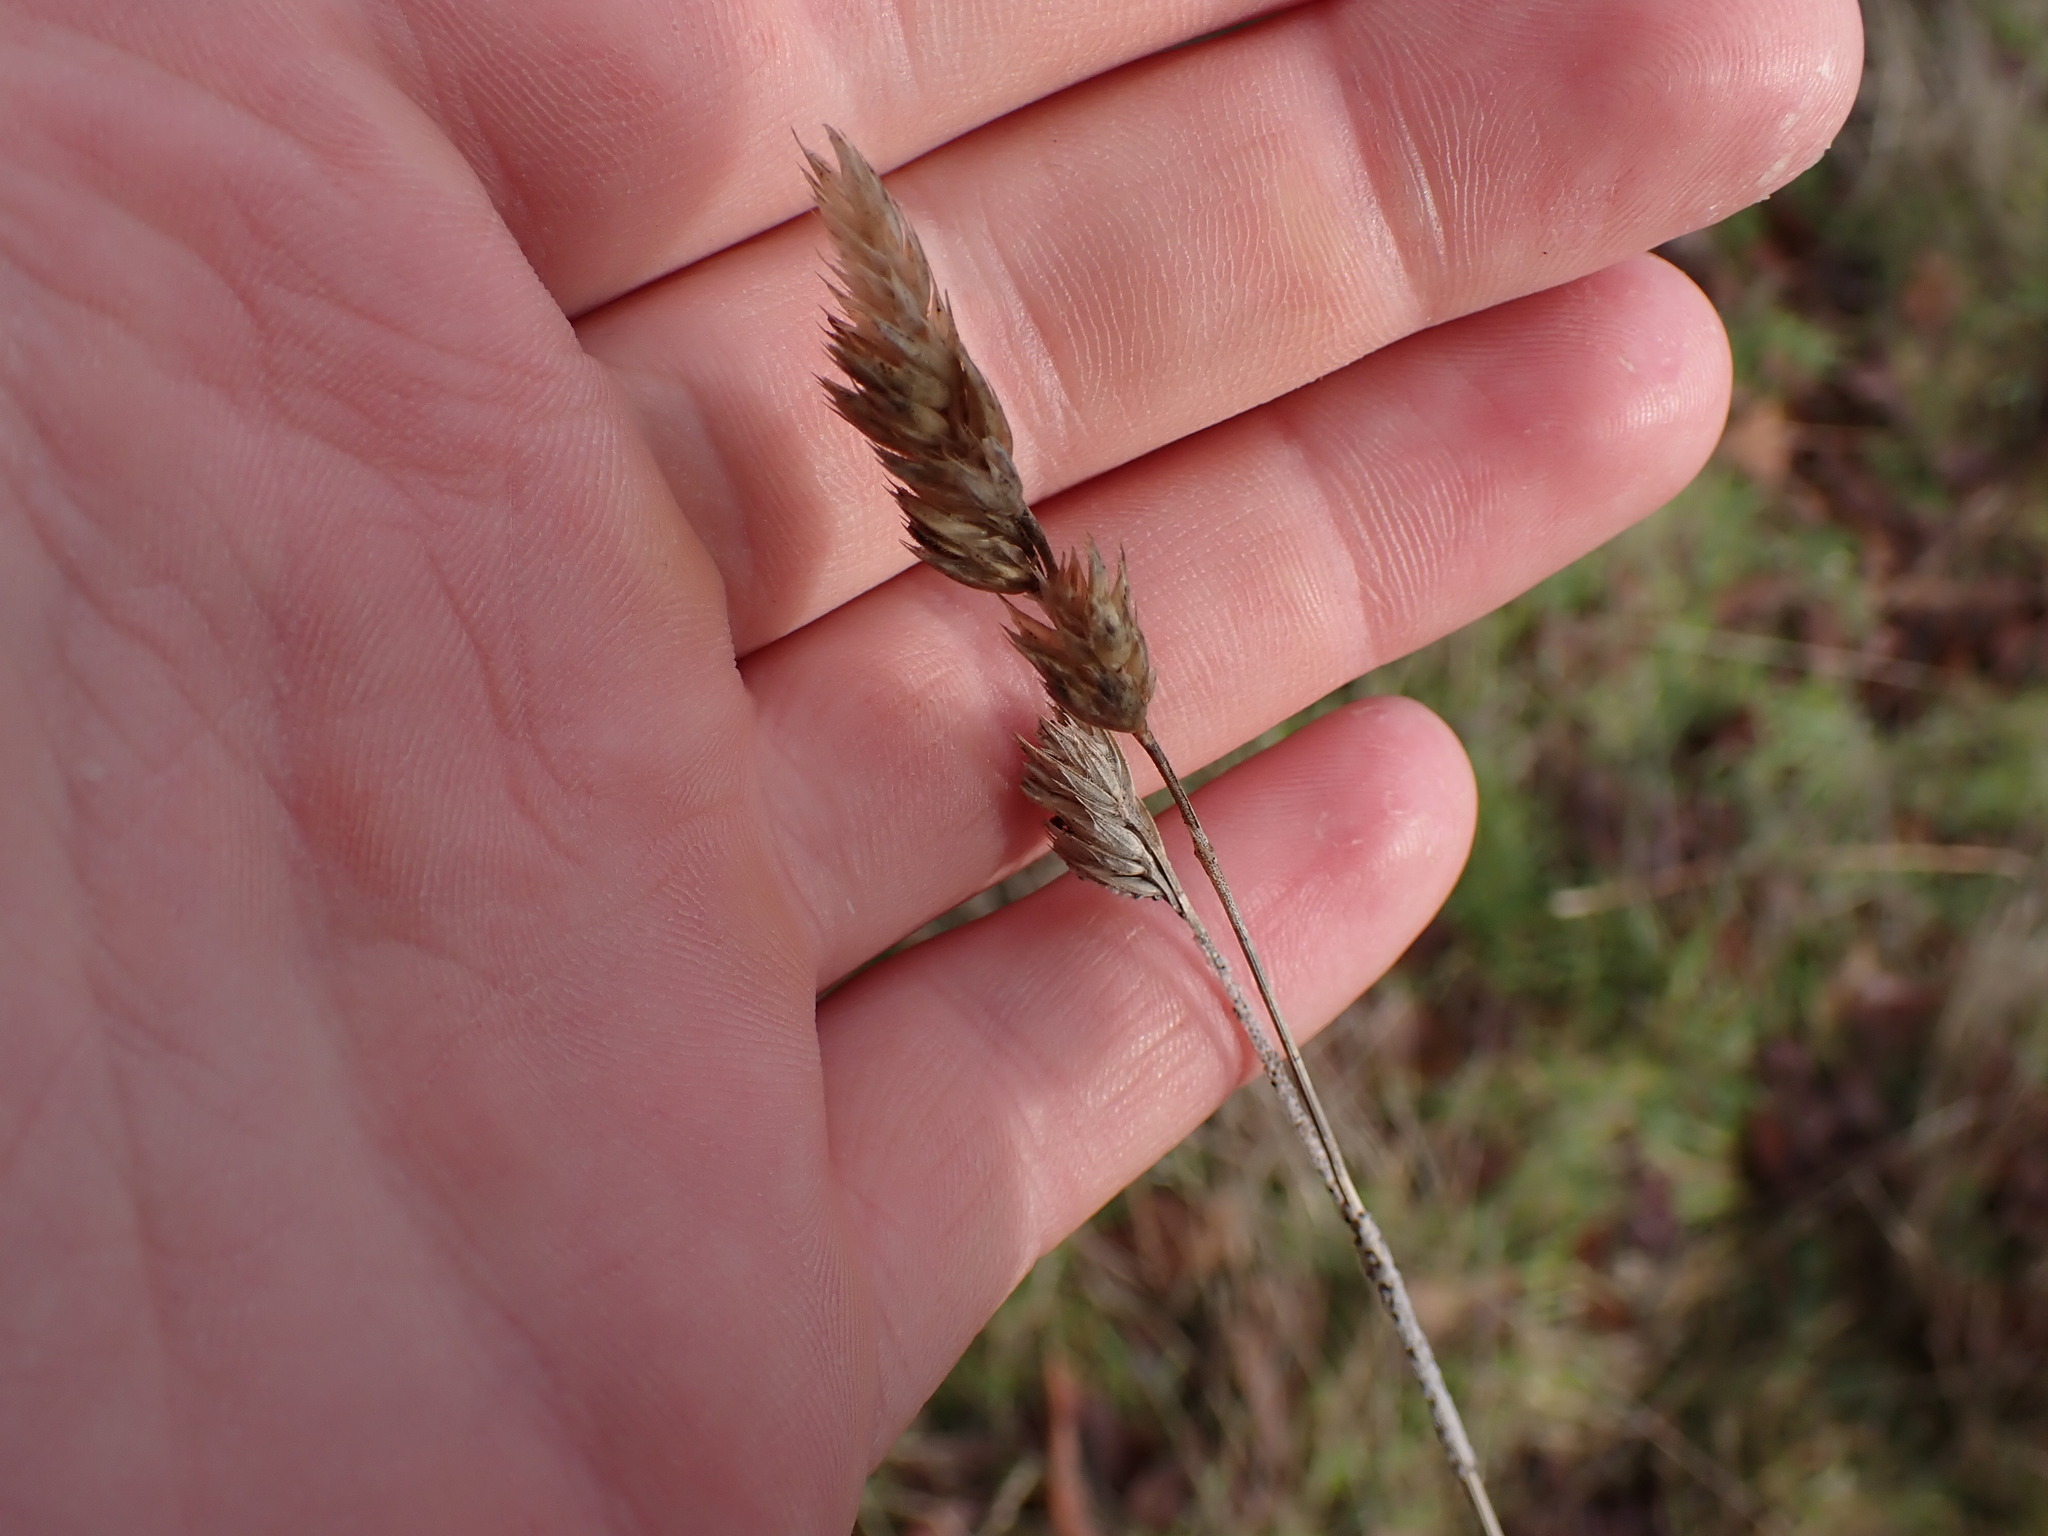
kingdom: Plantae
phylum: Tracheophyta
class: Liliopsida
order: Poales
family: Poaceae
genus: Dactylis
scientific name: Dactylis glomerata
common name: Orchardgrass
